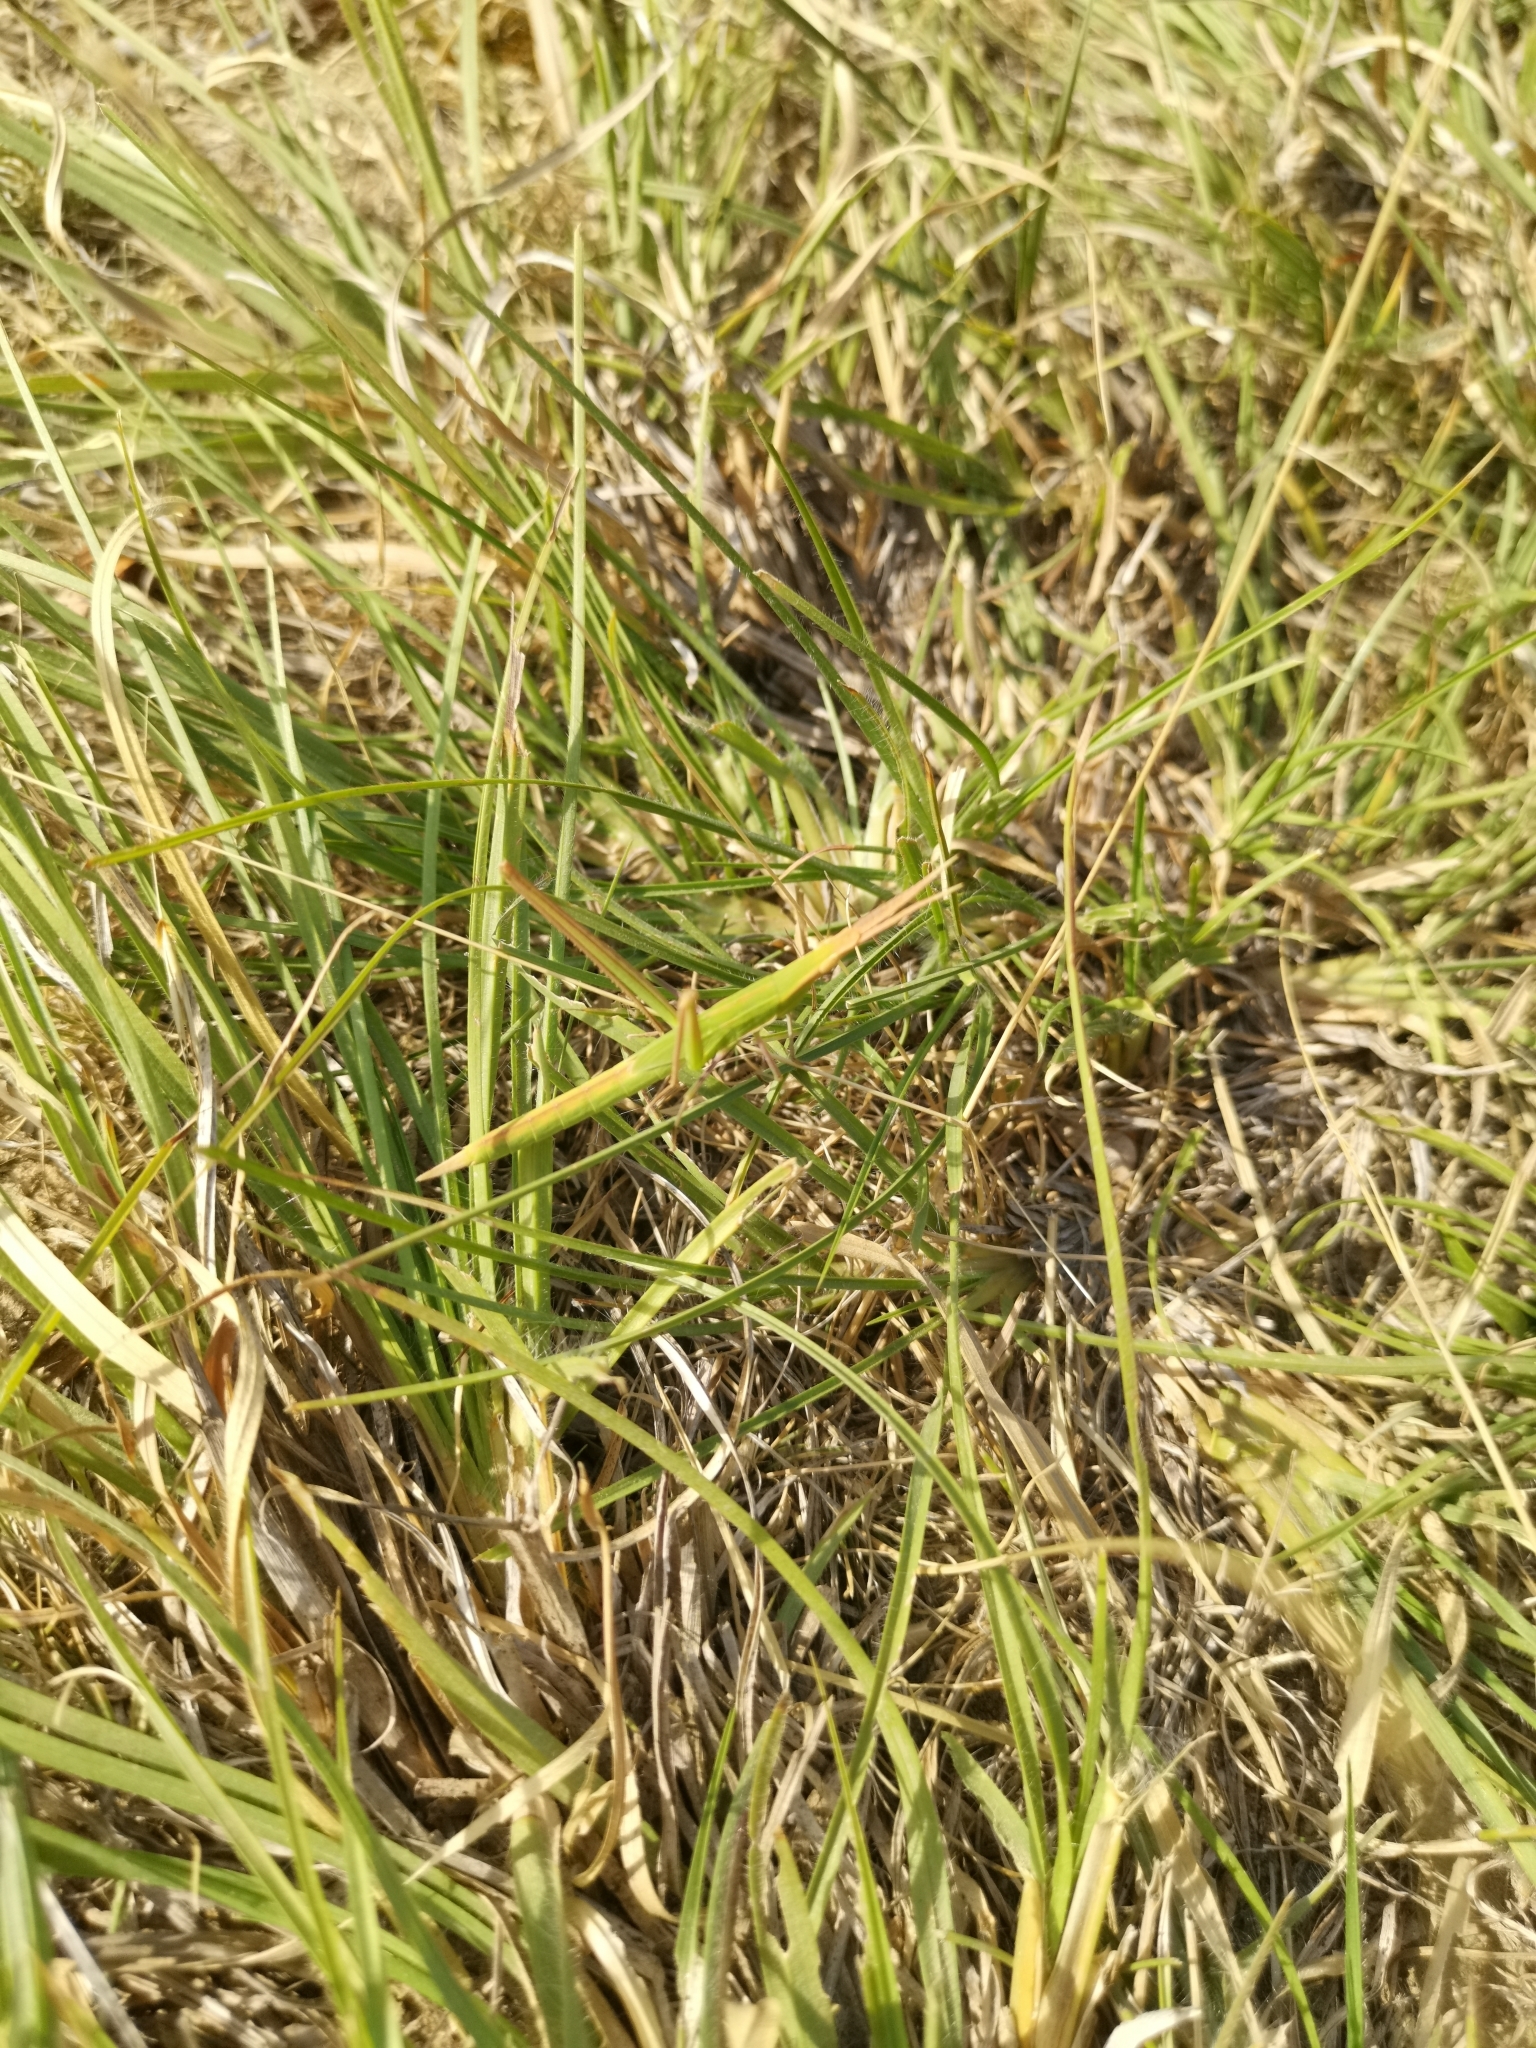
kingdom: Animalia
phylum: Arthropoda
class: Insecta
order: Orthoptera
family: Acrididae
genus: Acrida
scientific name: Acrida ungarica
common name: Common cone-headed grasshopper
